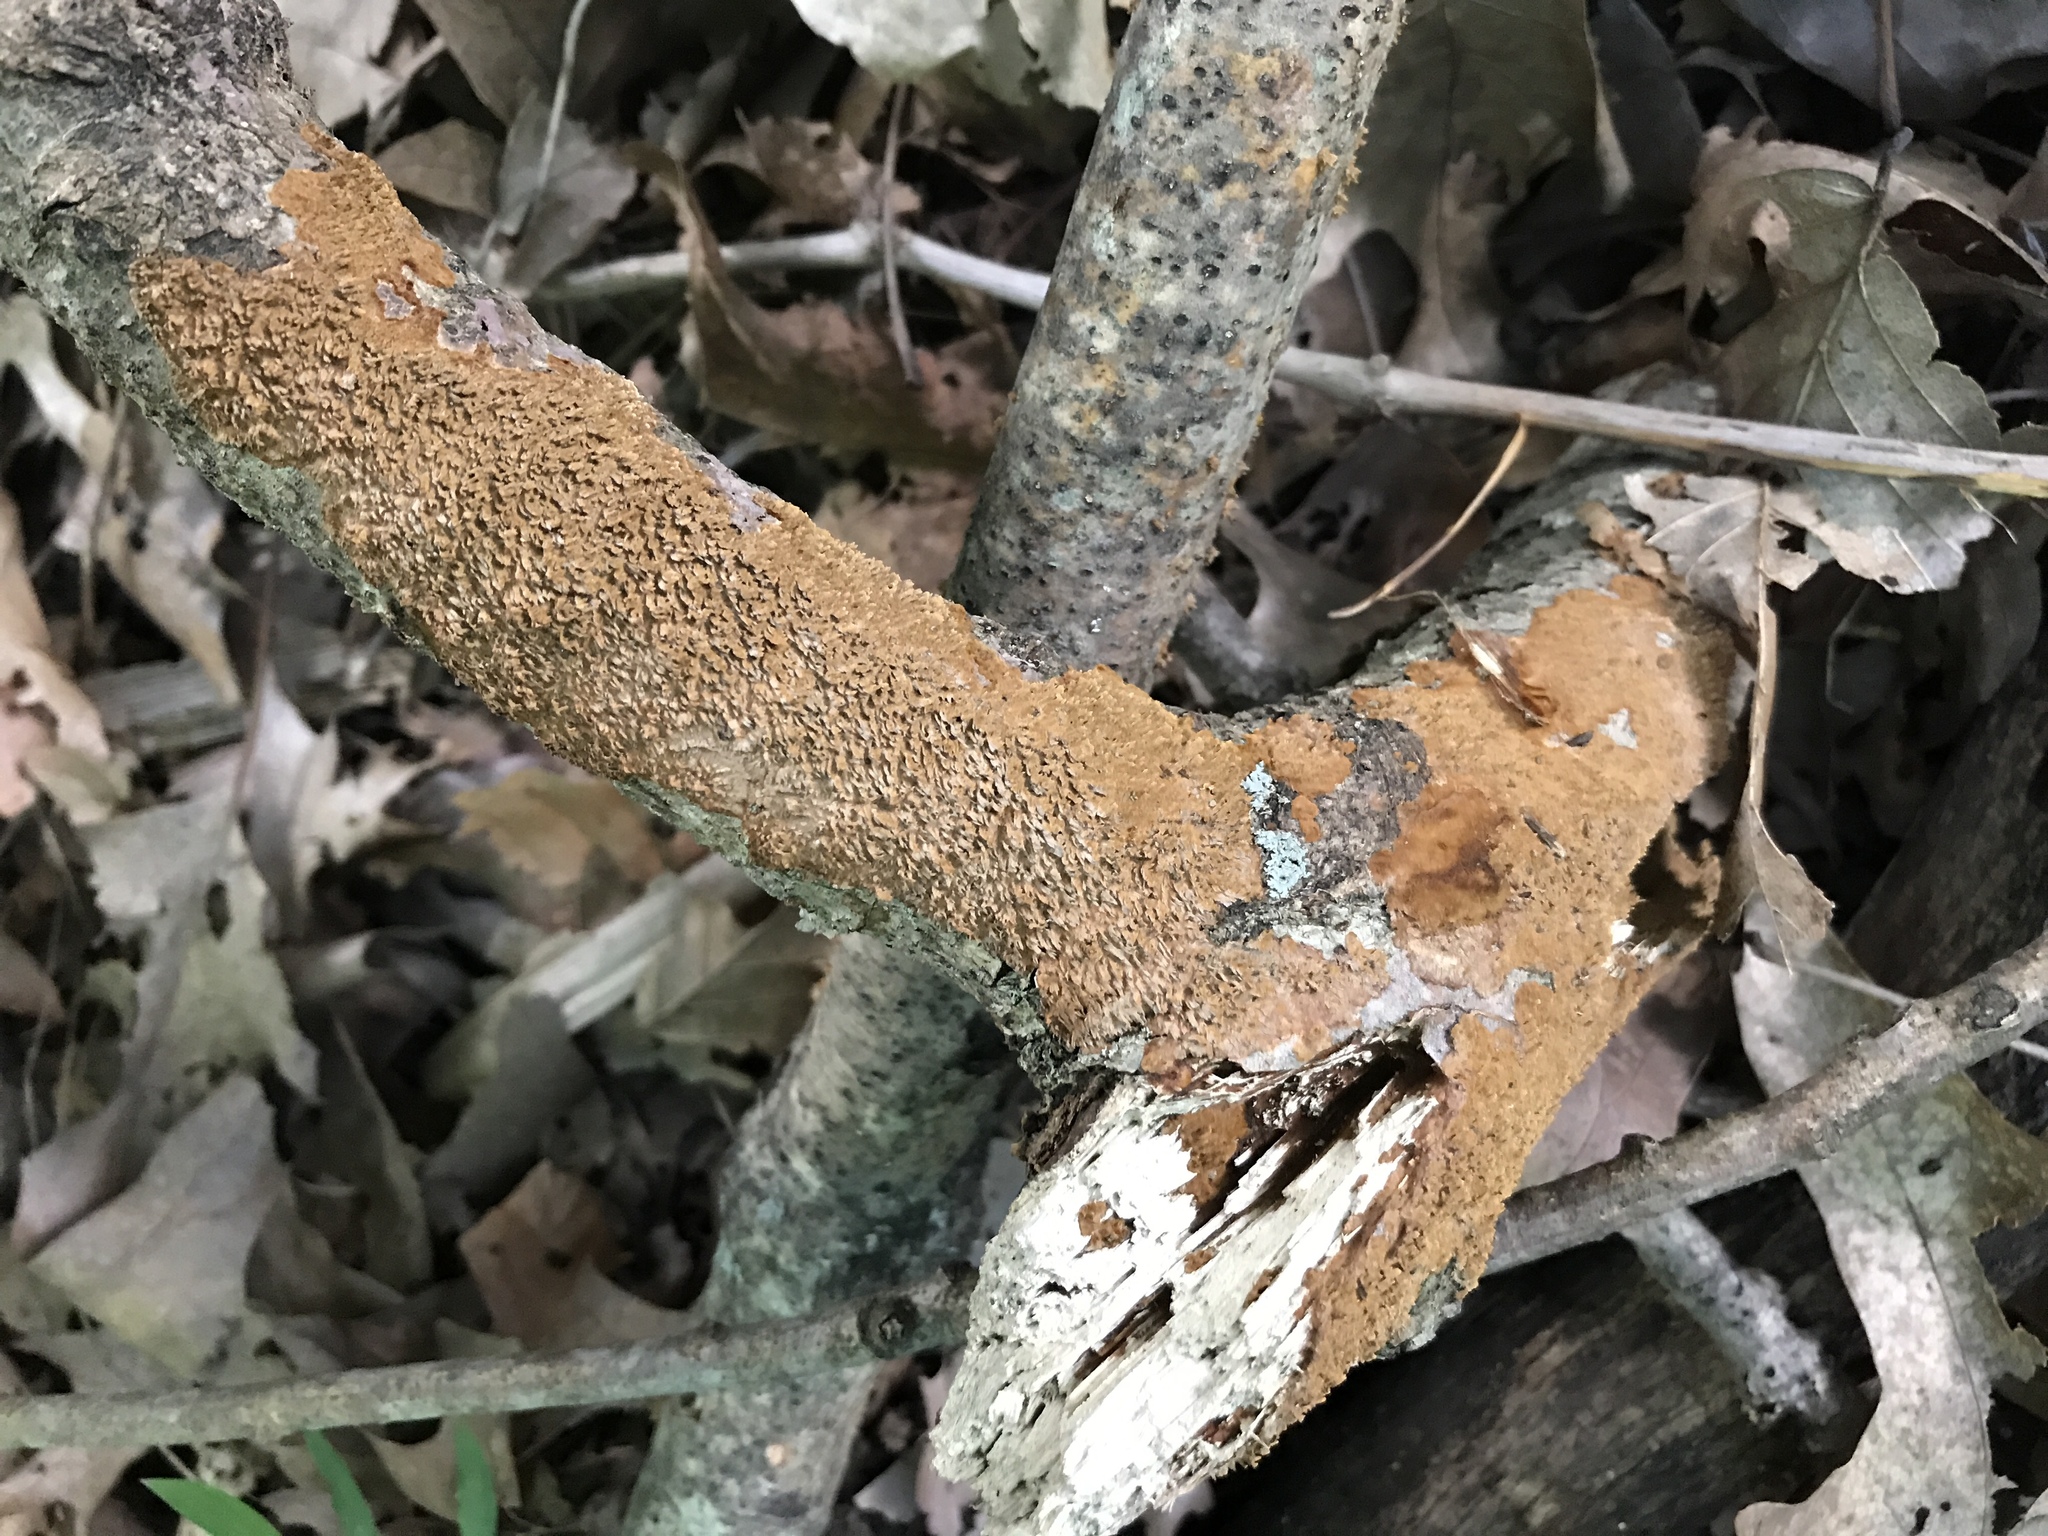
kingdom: Fungi
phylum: Basidiomycota
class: Agaricomycetes
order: Hymenochaetales
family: Hymenochaetaceae
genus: Hydnoporia
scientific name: Hydnoporia olivacea
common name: Brown-toothed crust fungus
